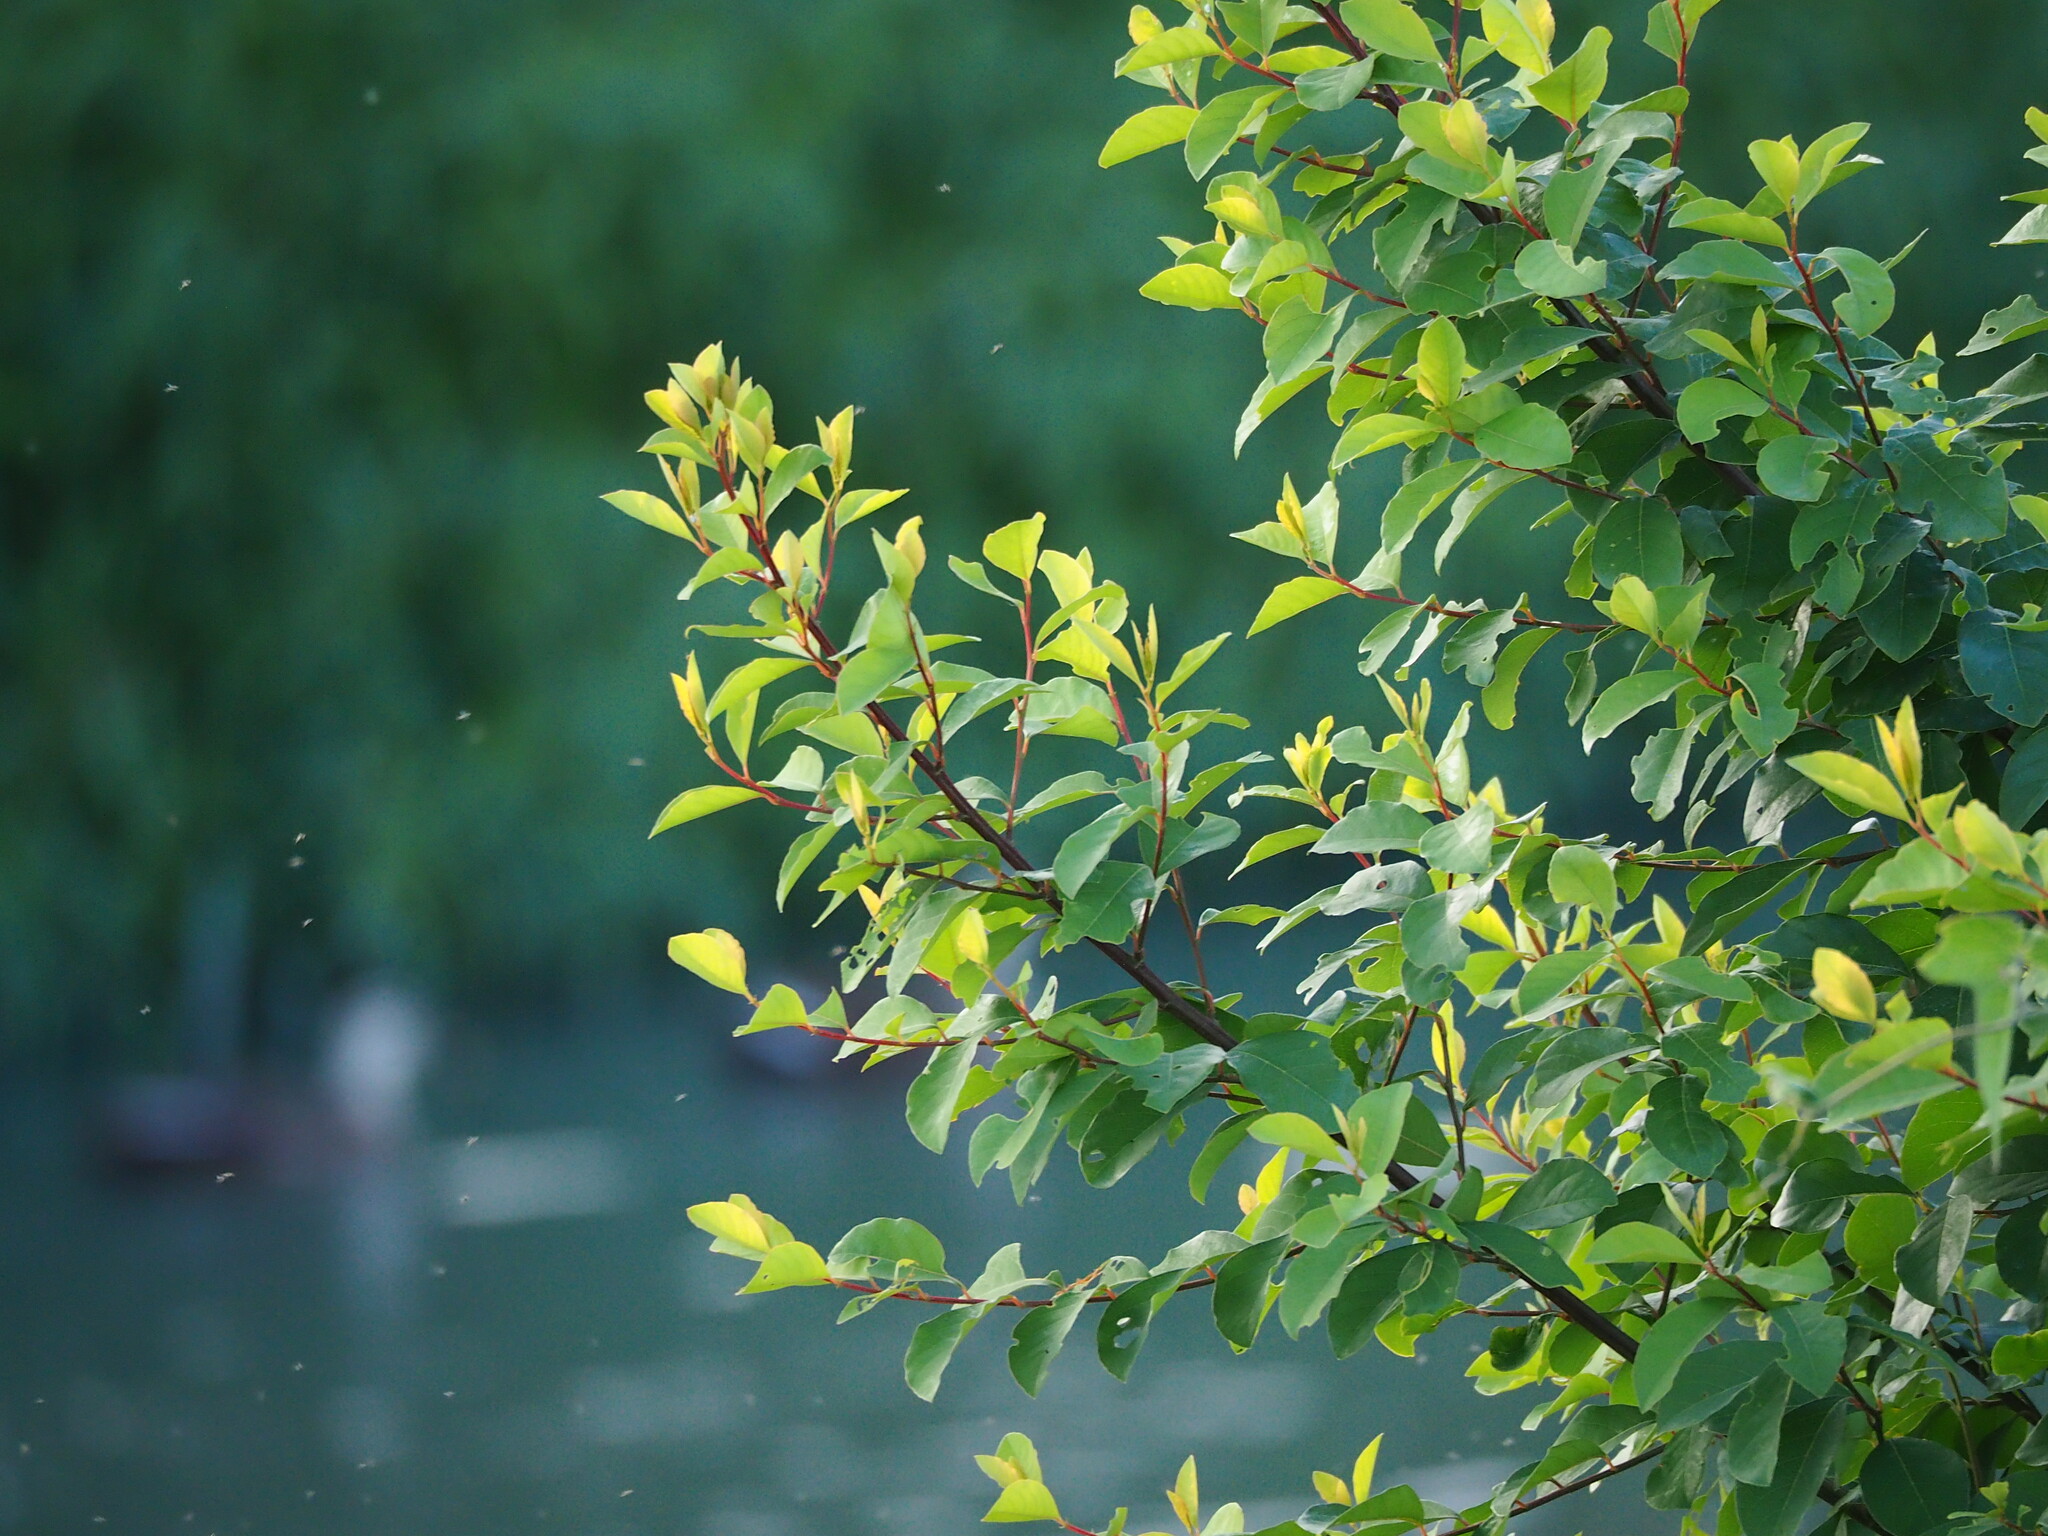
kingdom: Plantae
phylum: Tracheophyta
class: Magnoliopsida
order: Malpighiales
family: Phyllanthaceae
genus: Flueggea
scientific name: Flueggea virosa
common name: Common bushweed
